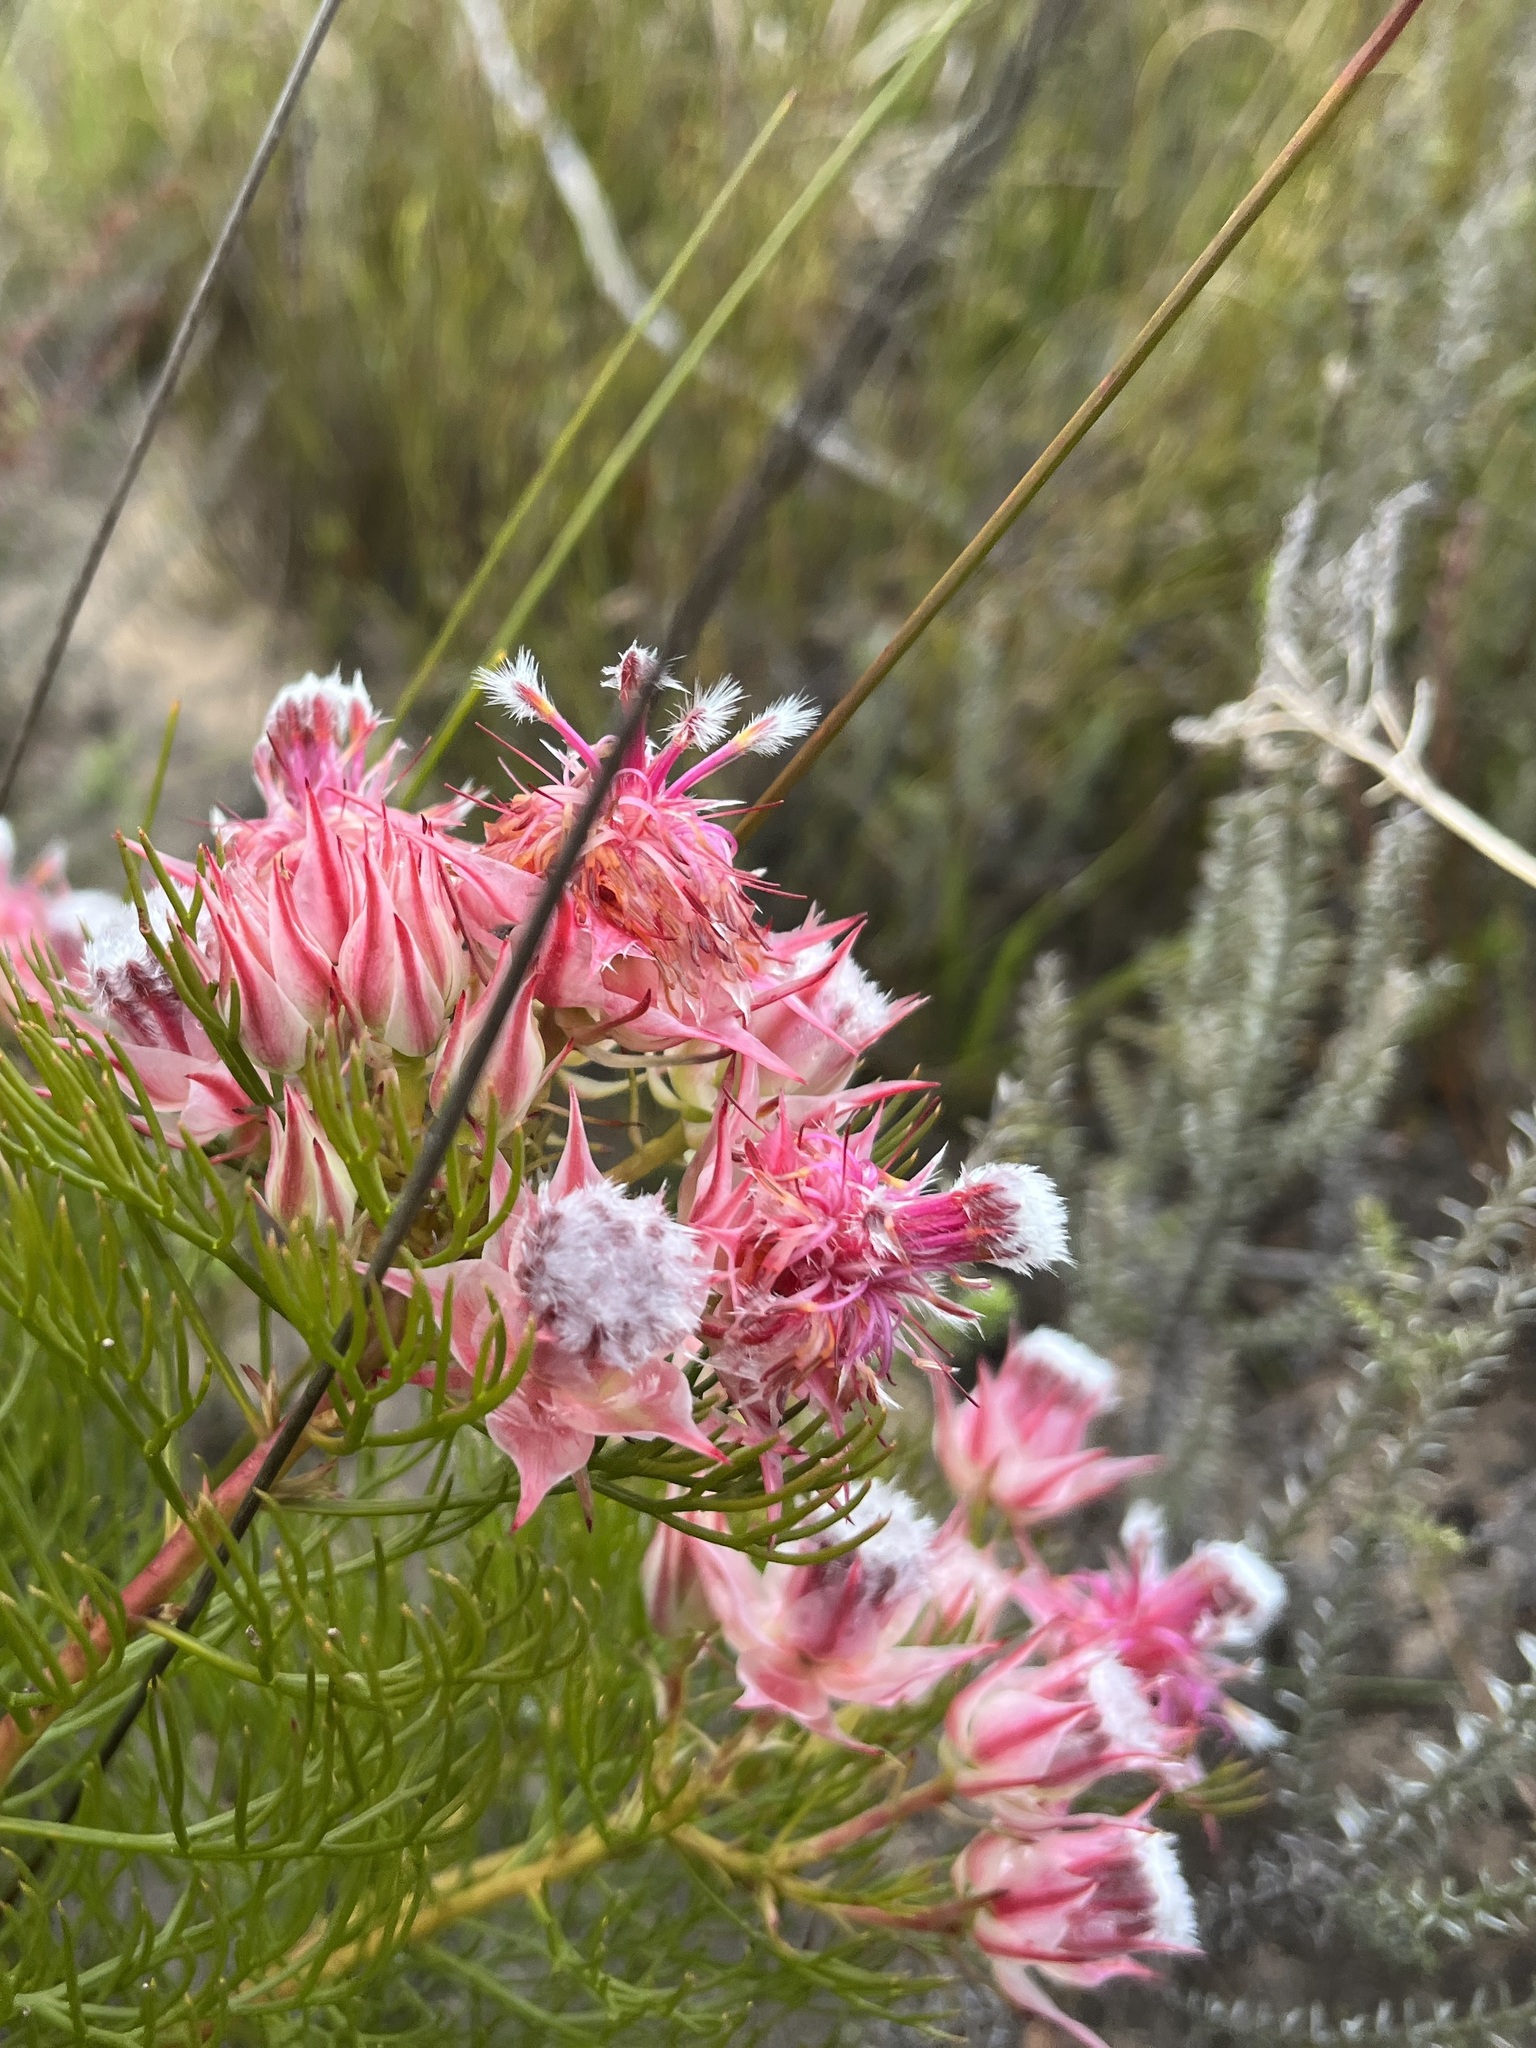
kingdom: Plantae
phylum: Tracheophyta
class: Magnoliopsida
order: Proteales
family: Proteaceae
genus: Serruria
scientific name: Serruria rosea
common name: Rose spiderhead
